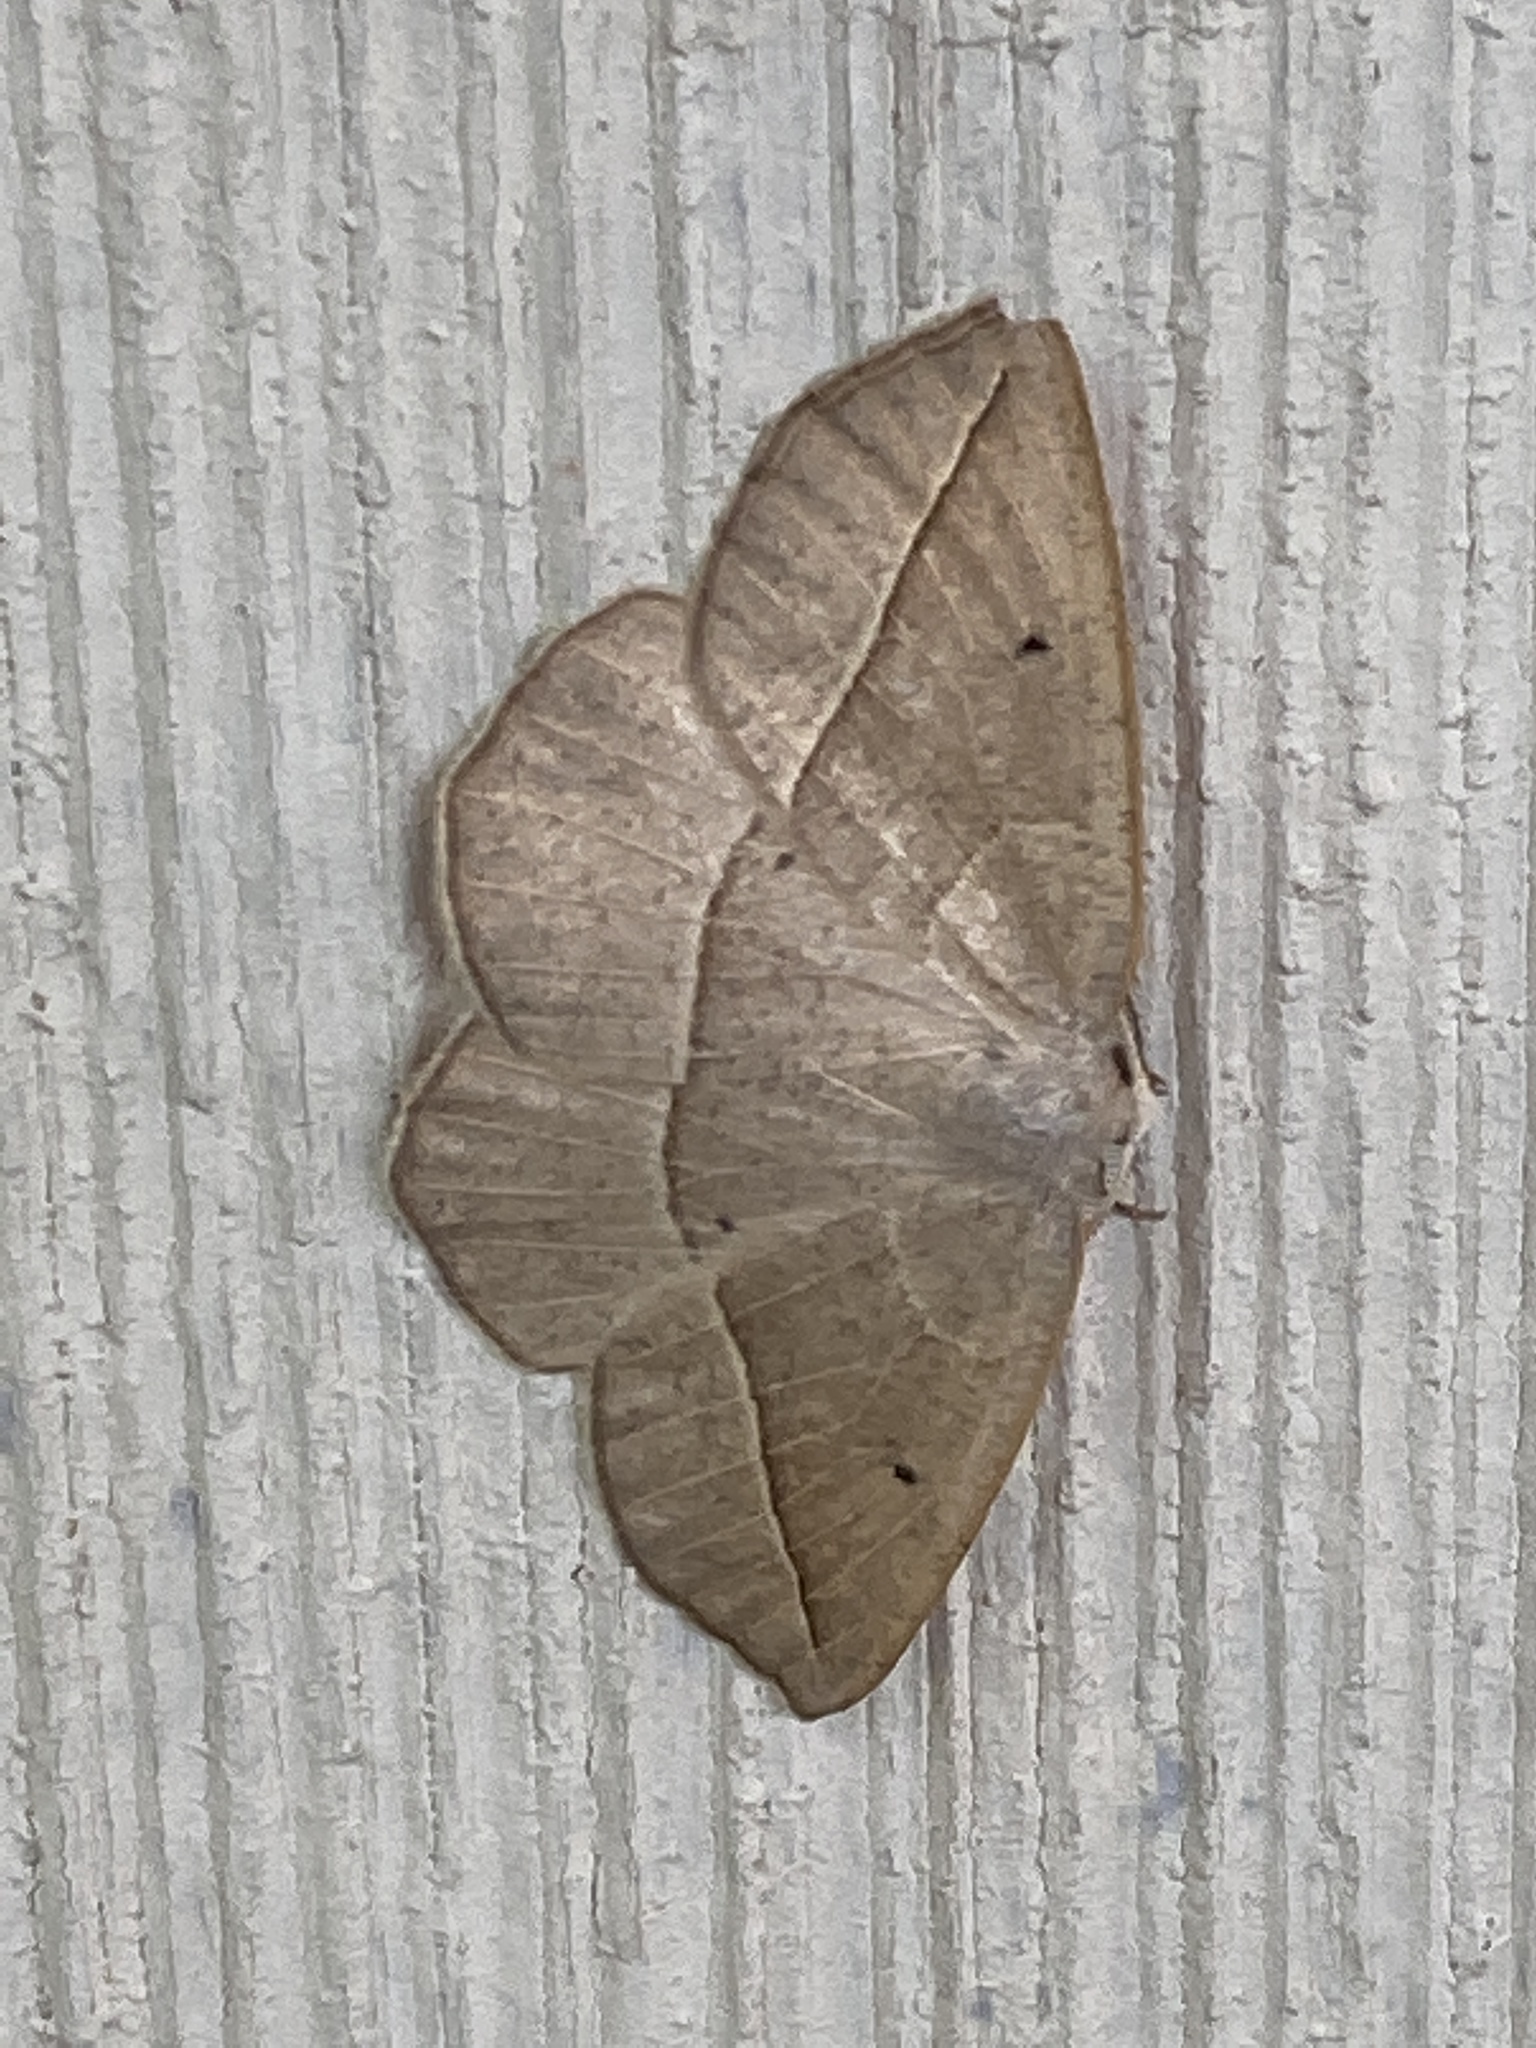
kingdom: Animalia
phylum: Arthropoda
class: Insecta
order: Lepidoptera
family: Geometridae
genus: Eusarca
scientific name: Eusarca confusaria
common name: Confused eusarca
